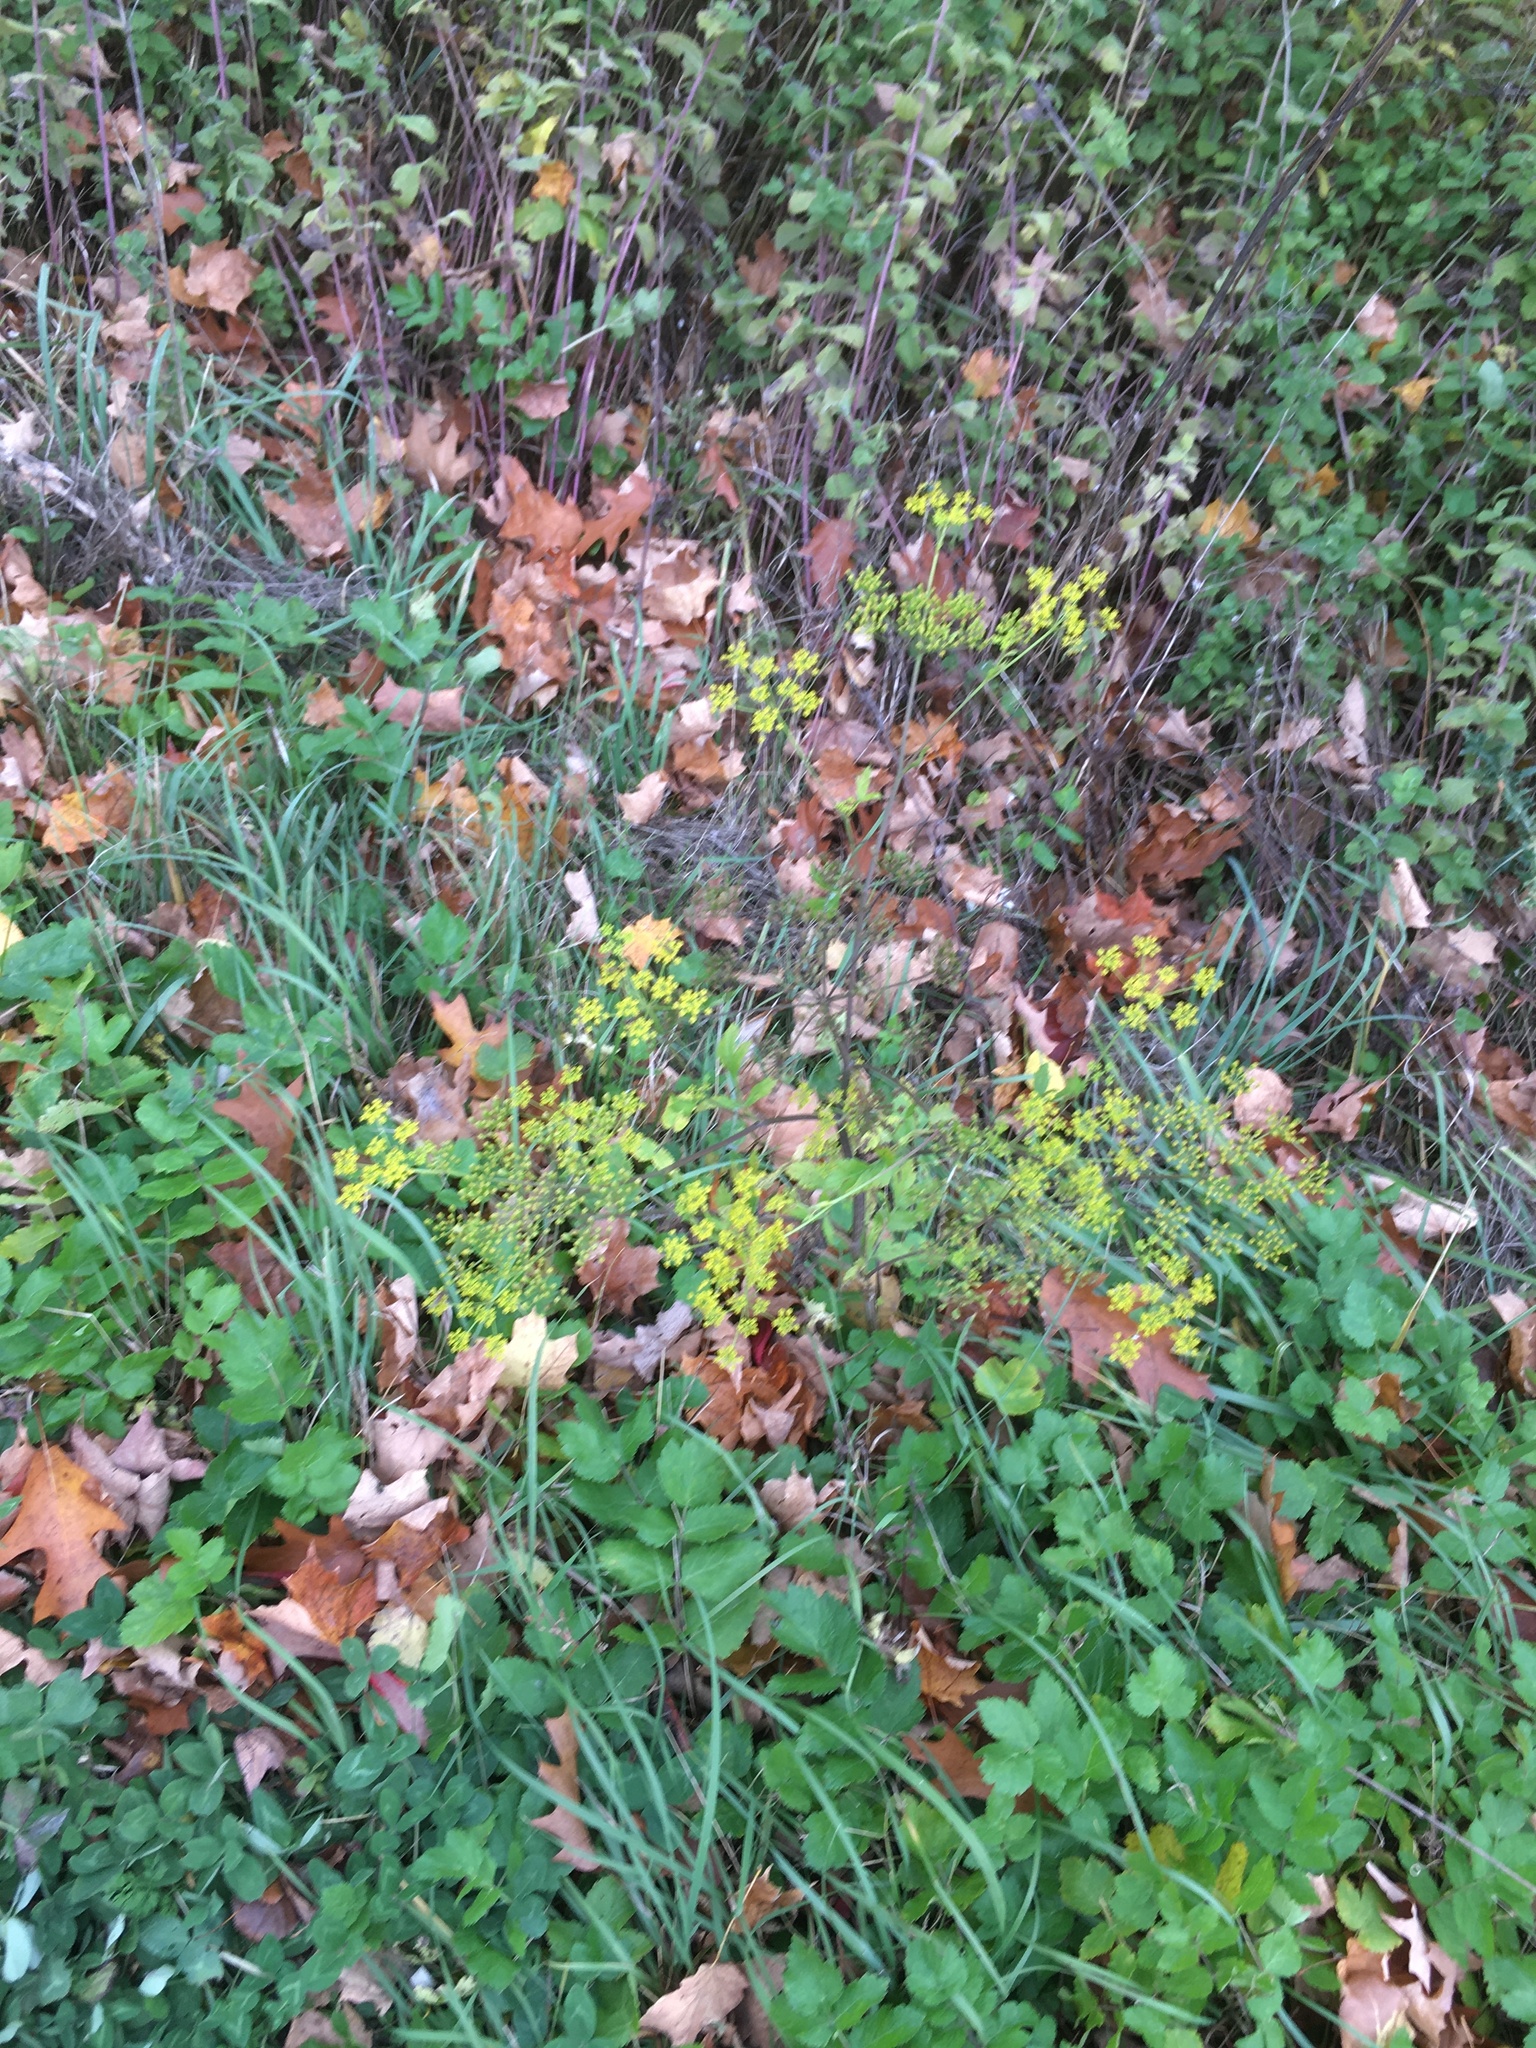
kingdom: Plantae
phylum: Tracheophyta
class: Magnoliopsida
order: Apiales
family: Apiaceae
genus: Pastinaca
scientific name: Pastinaca sativa
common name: Wild parsnip
